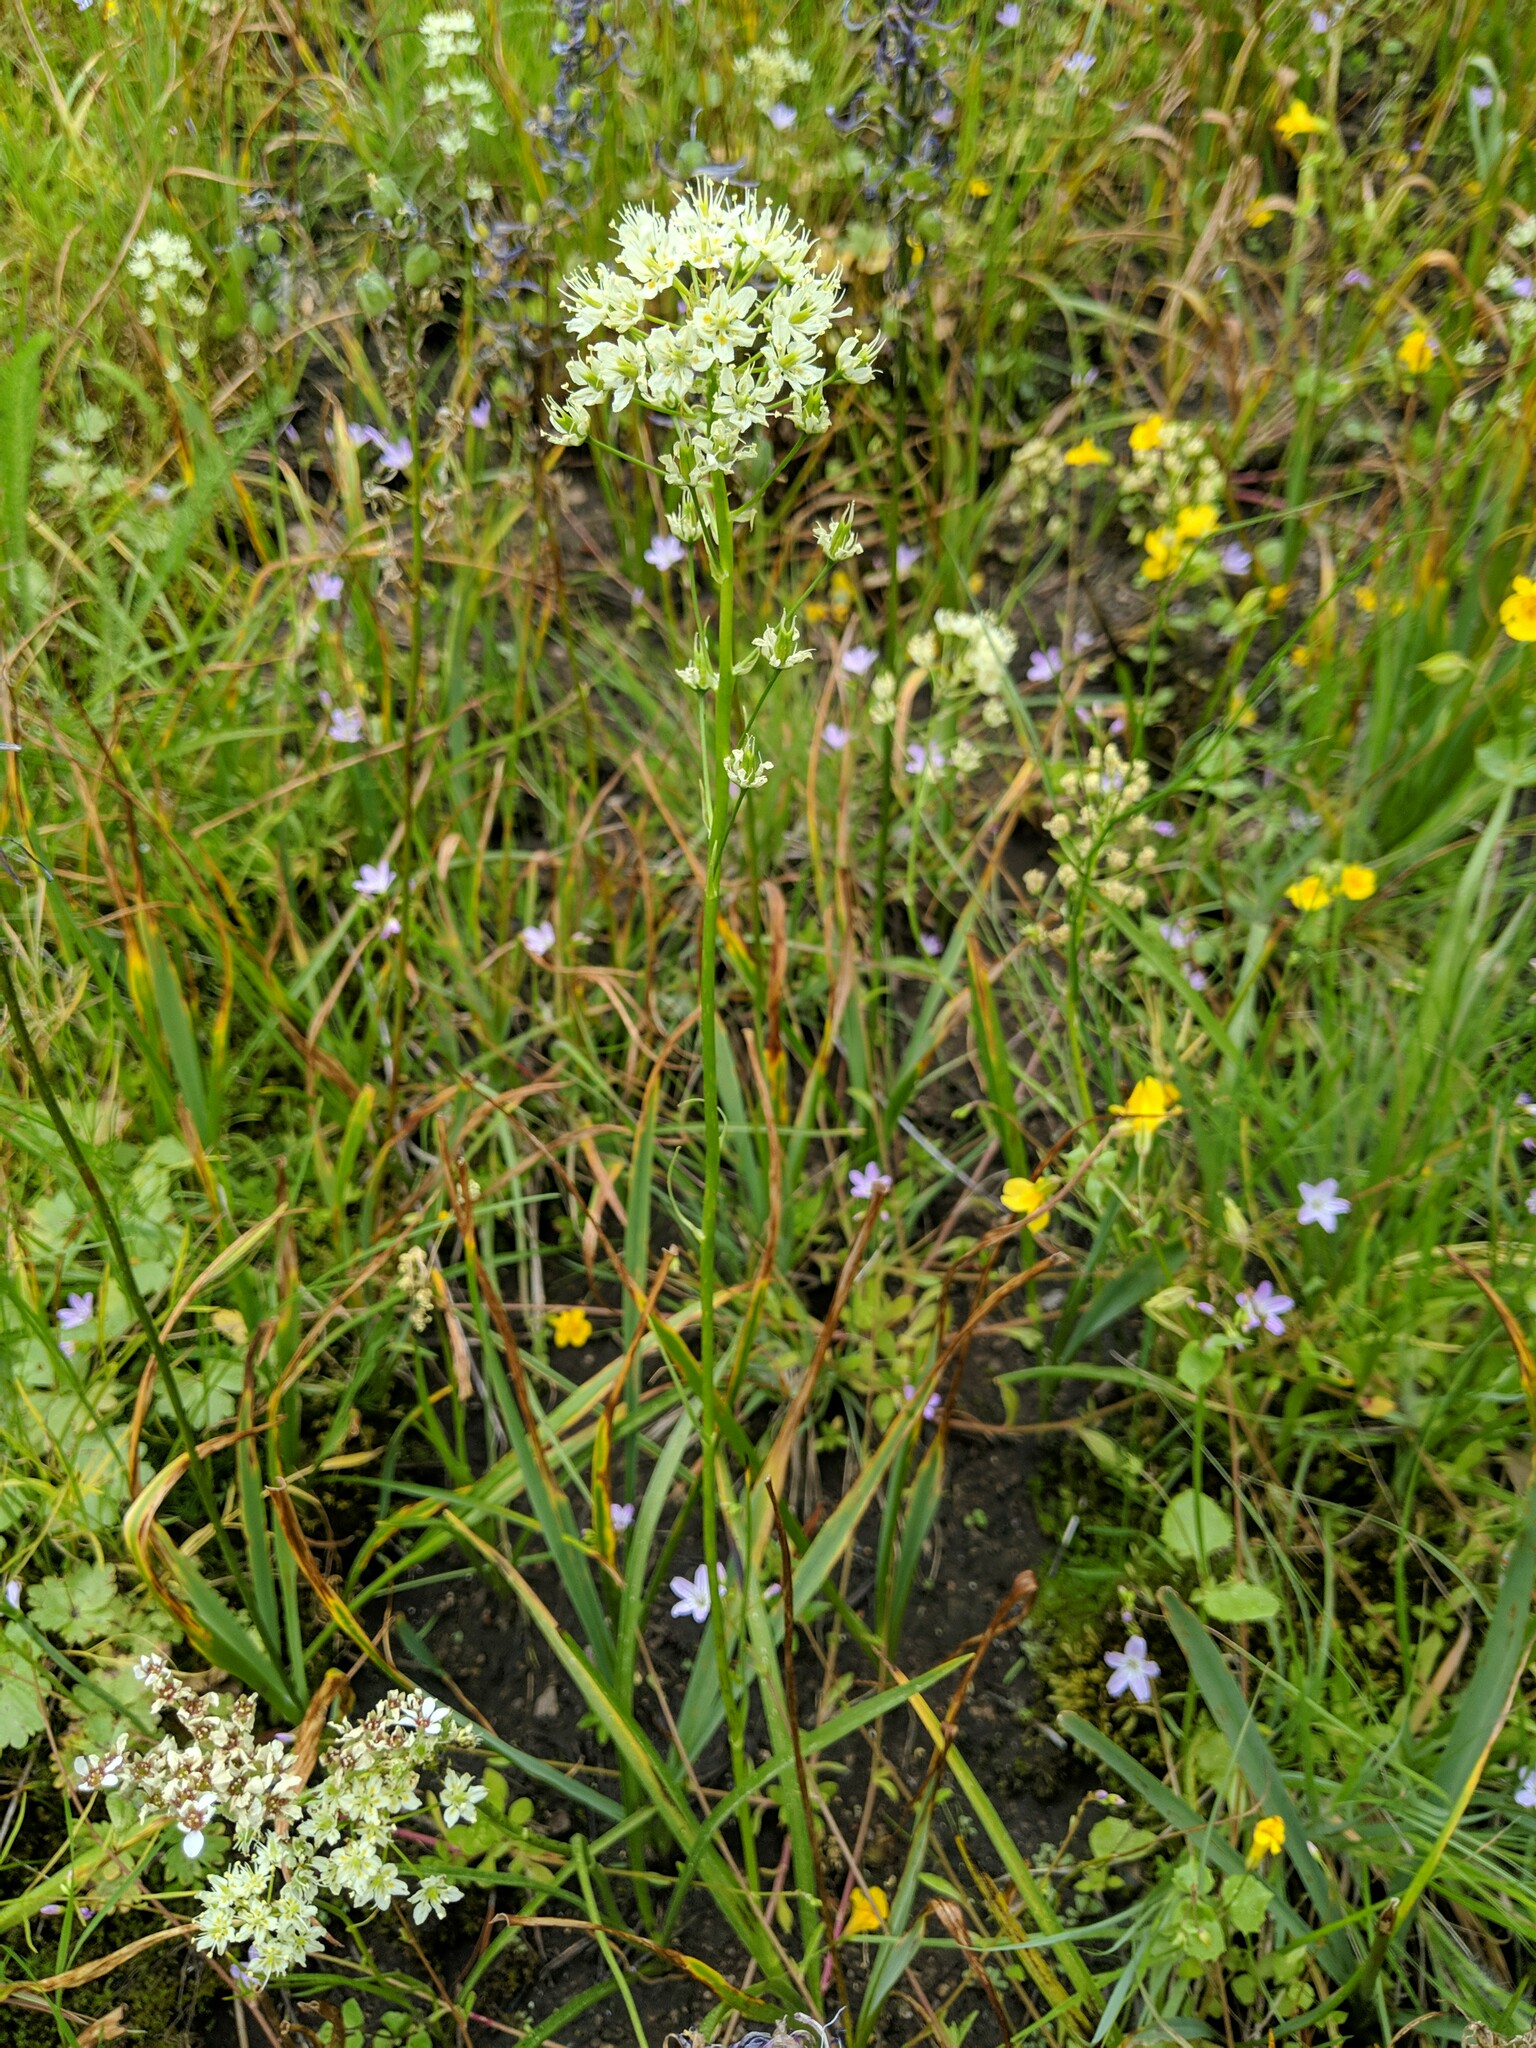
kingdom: Plantae
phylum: Tracheophyta
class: Liliopsida
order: Liliales
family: Melanthiaceae
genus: Toxicoscordion
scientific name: Toxicoscordion venenosum
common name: Meadow death camas
